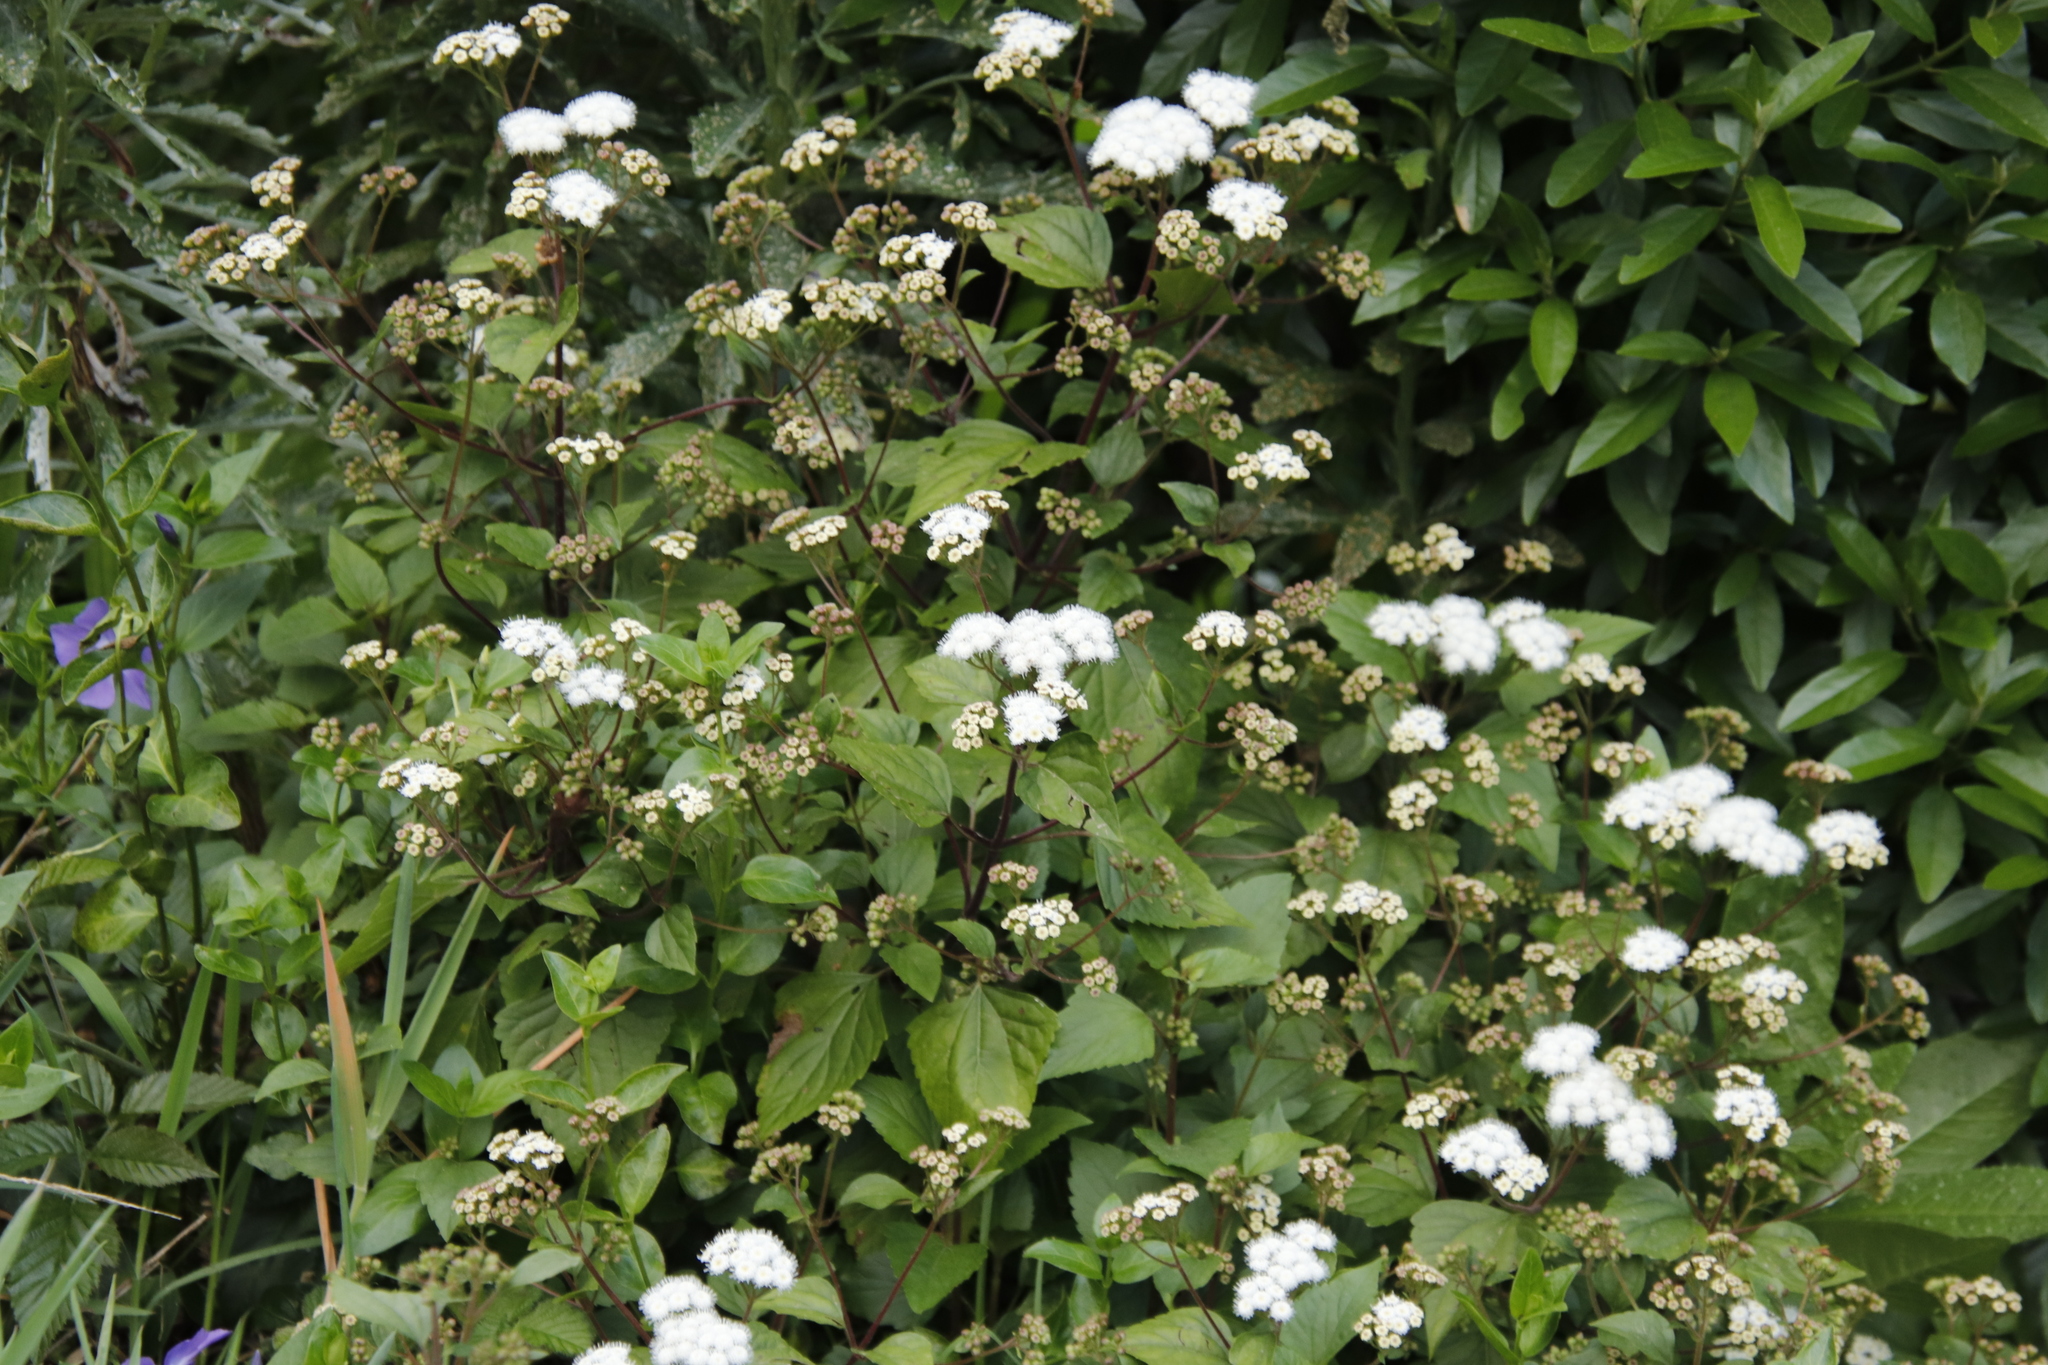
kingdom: Plantae
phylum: Tracheophyta
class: Magnoliopsida
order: Asterales
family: Asteraceae
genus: Ageratina
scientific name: Ageratina adenophora
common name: Sticky snakeroot
